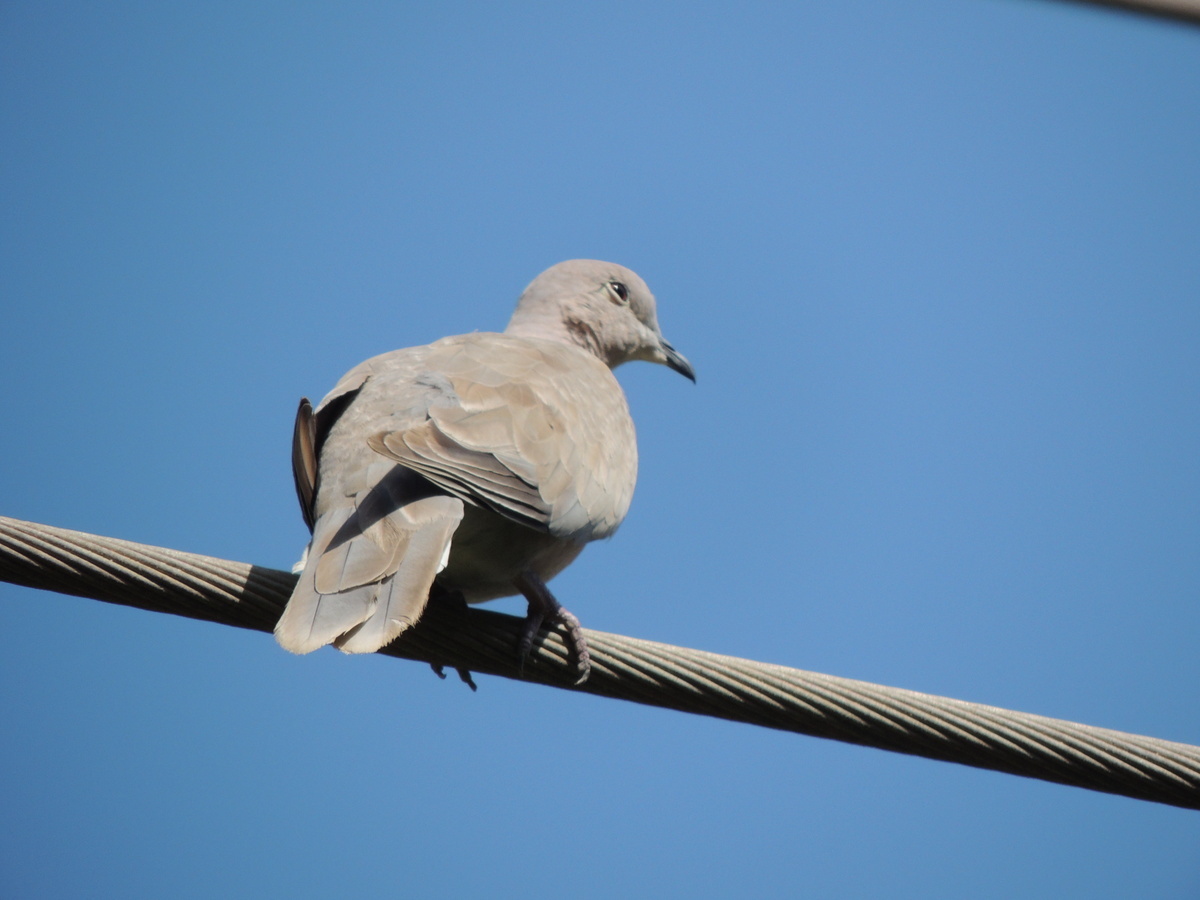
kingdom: Animalia
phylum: Chordata
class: Aves
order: Columbiformes
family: Columbidae
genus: Streptopelia
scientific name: Streptopelia decaocto
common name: Eurasian collared dove
